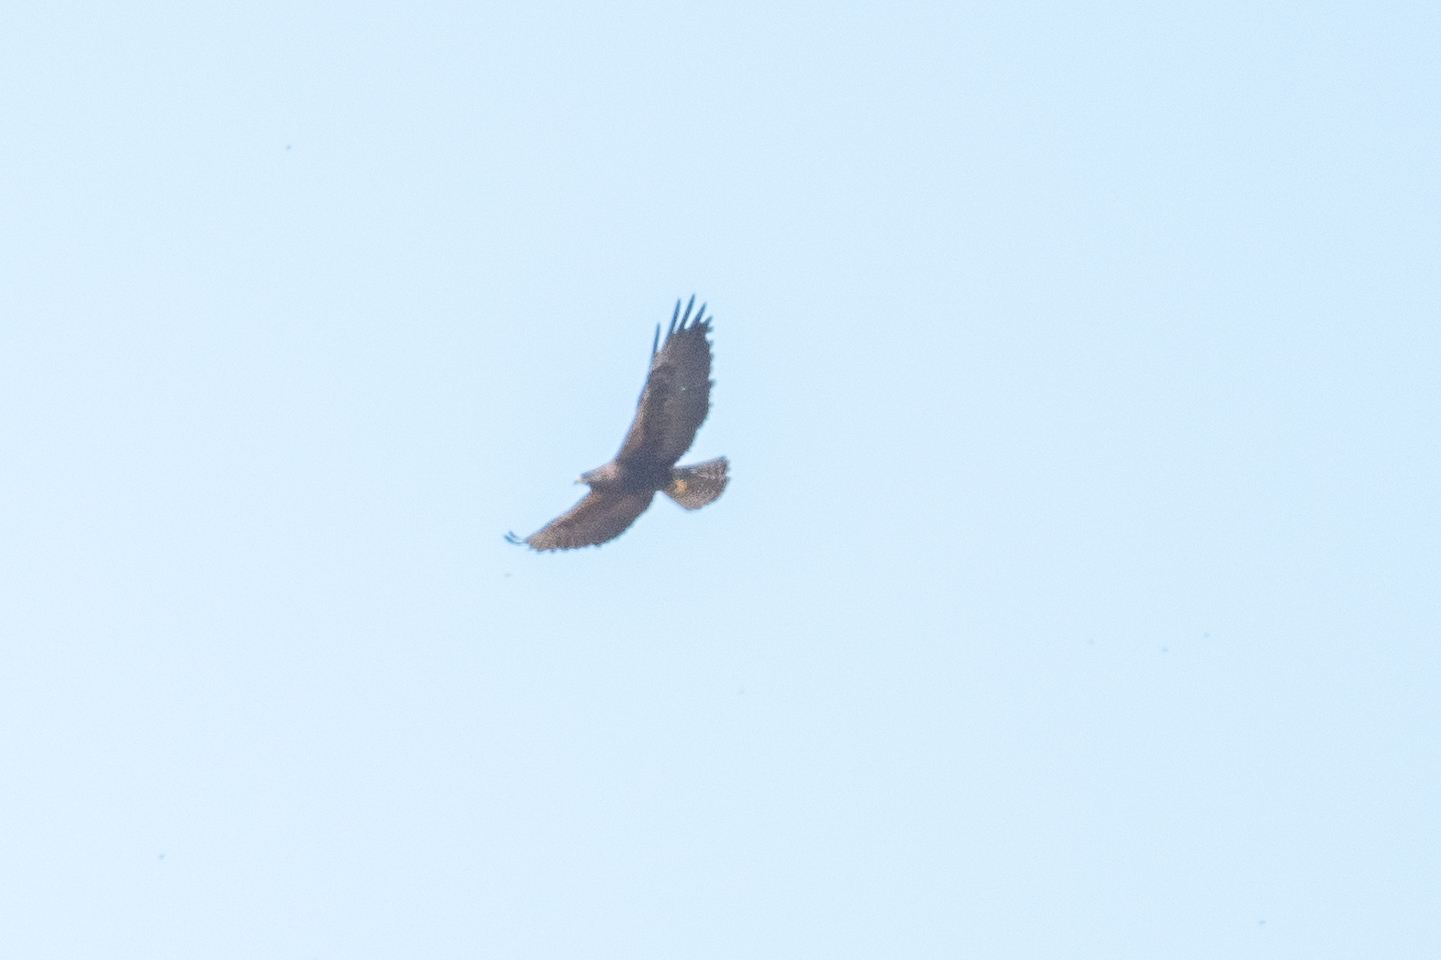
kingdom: Animalia
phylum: Chordata
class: Aves
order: Accipitriformes
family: Accipitridae
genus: Buteo
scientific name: Buteo swainsoni
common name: Swainson's hawk
